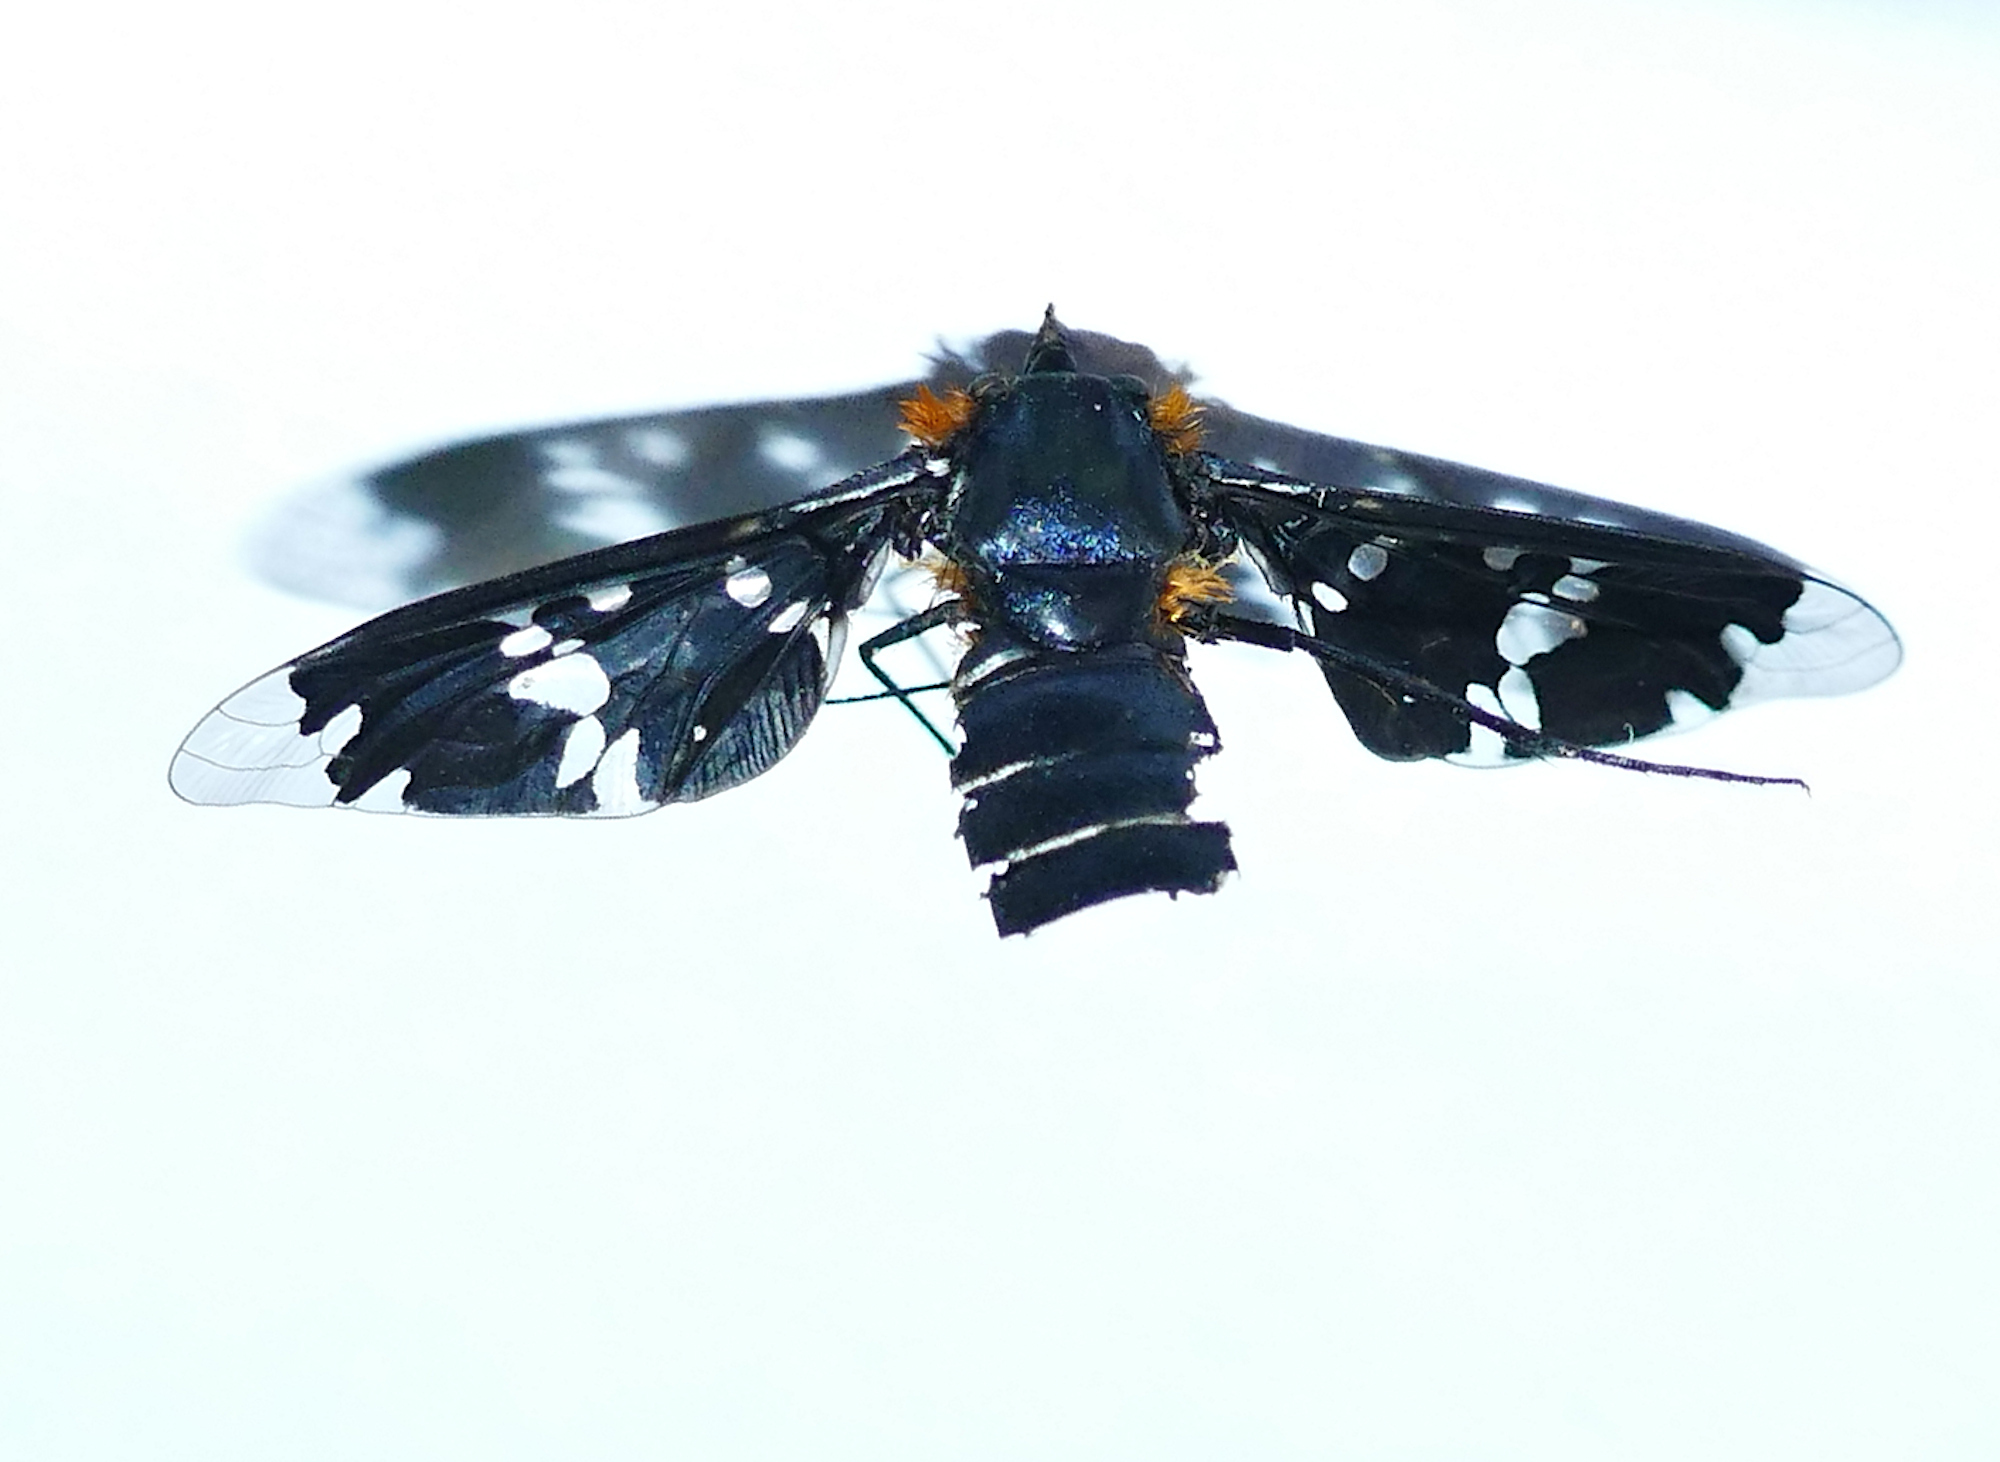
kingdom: Animalia
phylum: Arthropoda
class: Insecta
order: Diptera
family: Bombyliidae
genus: Exoprosopa
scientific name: Exoprosopa rhea
